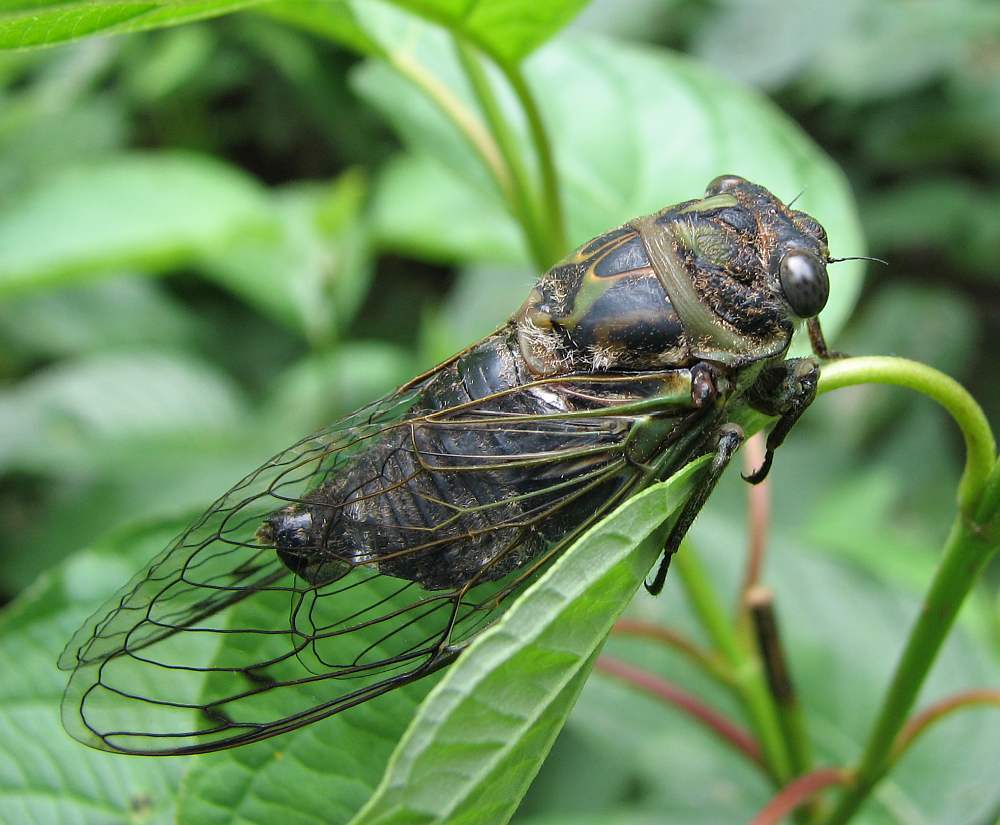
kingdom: Animalia
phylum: Arthropoda
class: Insecta
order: Hemiptera
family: Cicadidae
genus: Neotibicen
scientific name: Neotibicen canicularis
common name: God-day cicada
